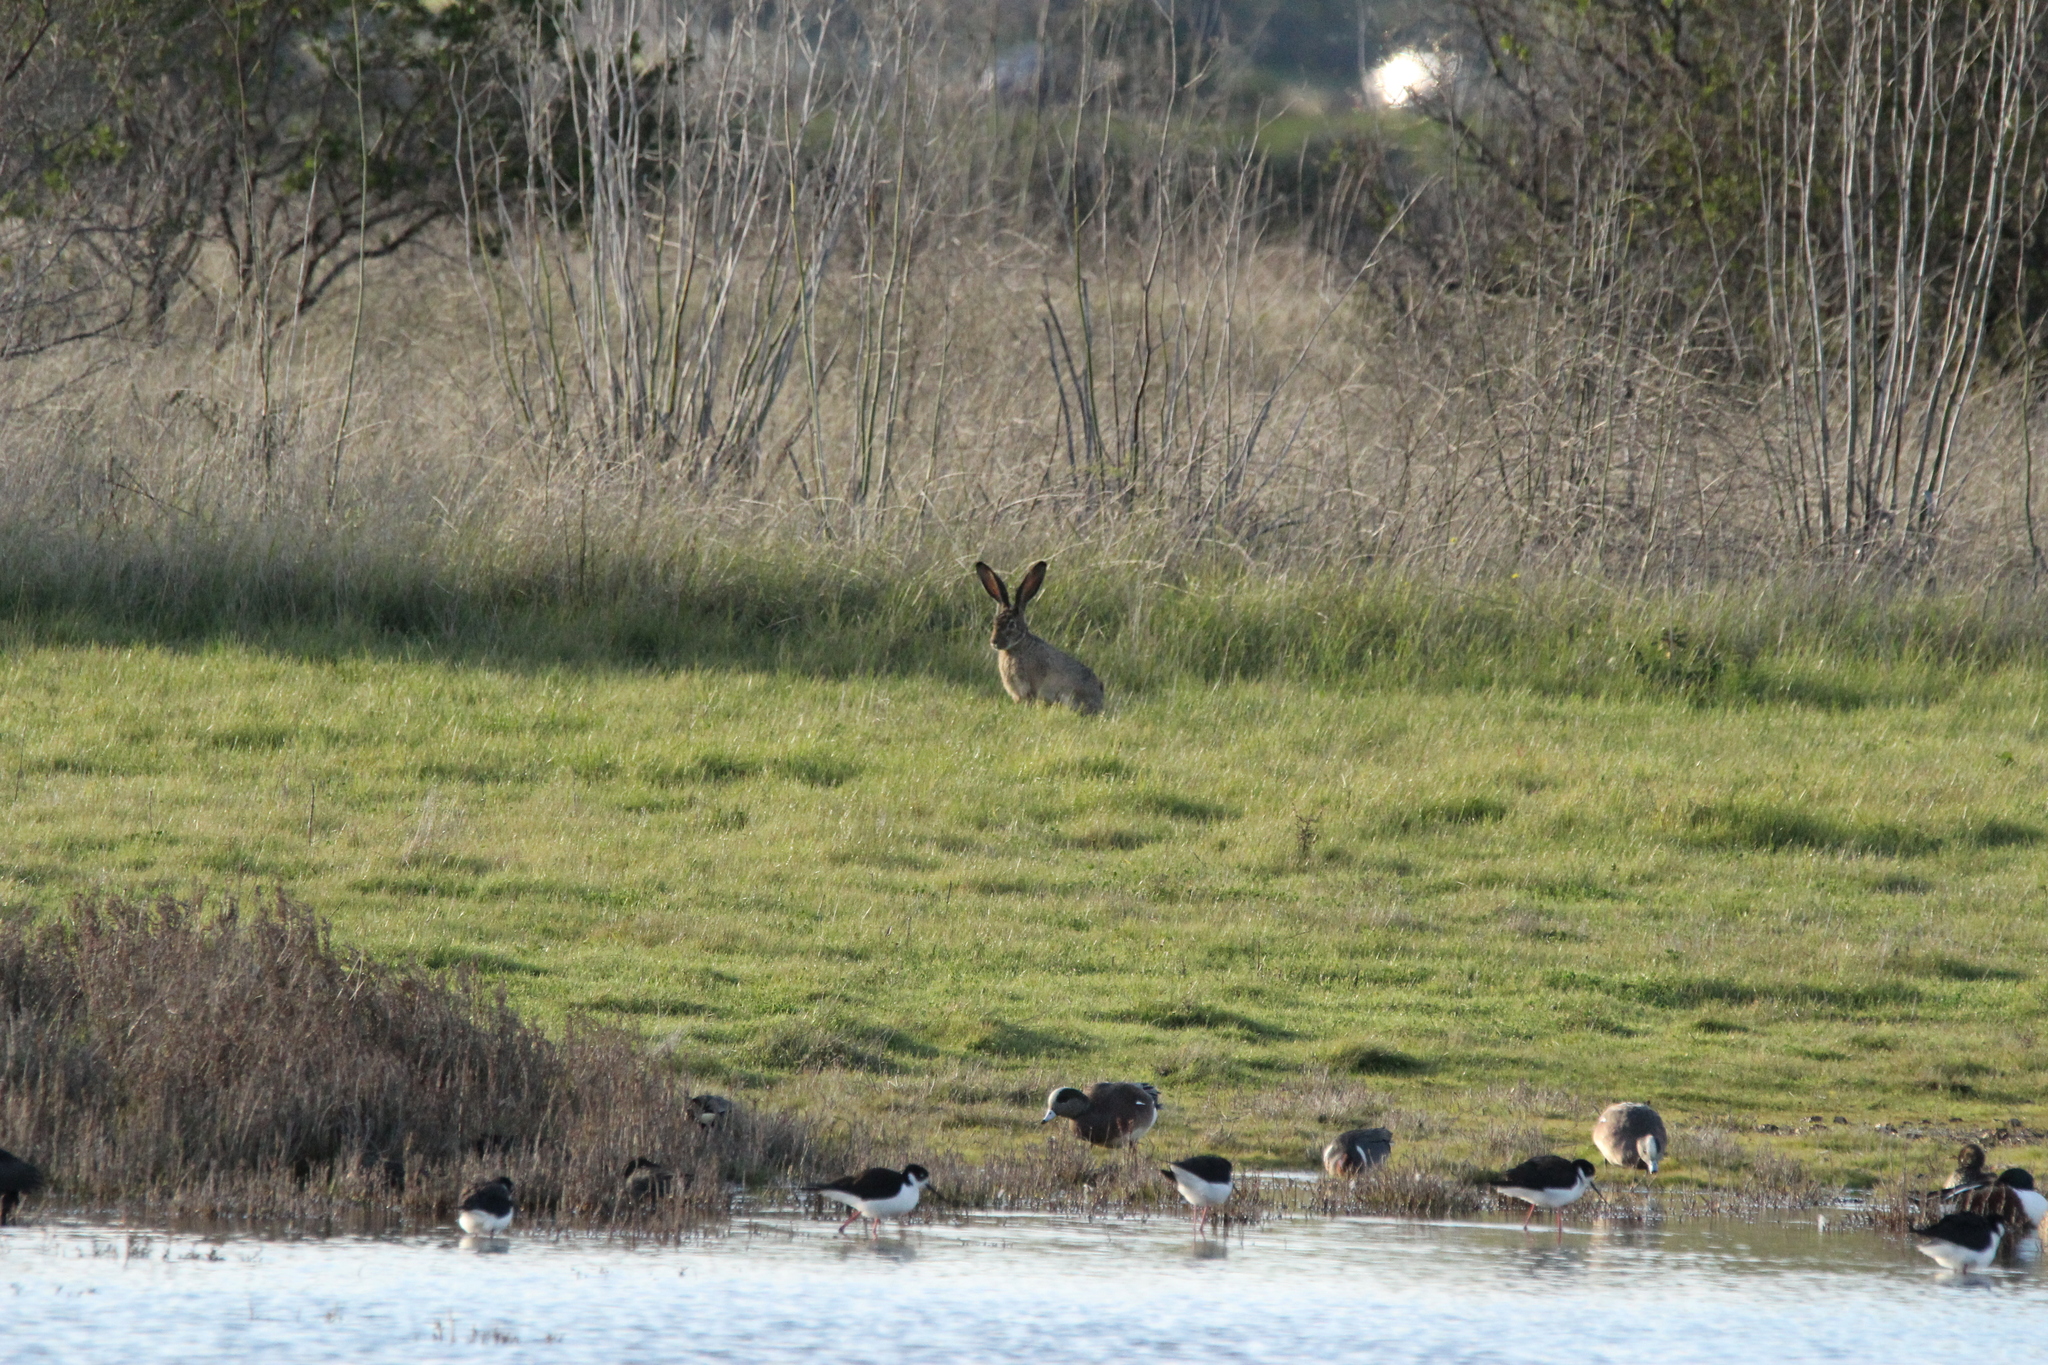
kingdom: Animalia
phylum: Chordata
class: Mammalia
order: Lagomorpha
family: Leporidae
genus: Lepus
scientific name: Lepus californicus
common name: Black-tailed jackrabbit
